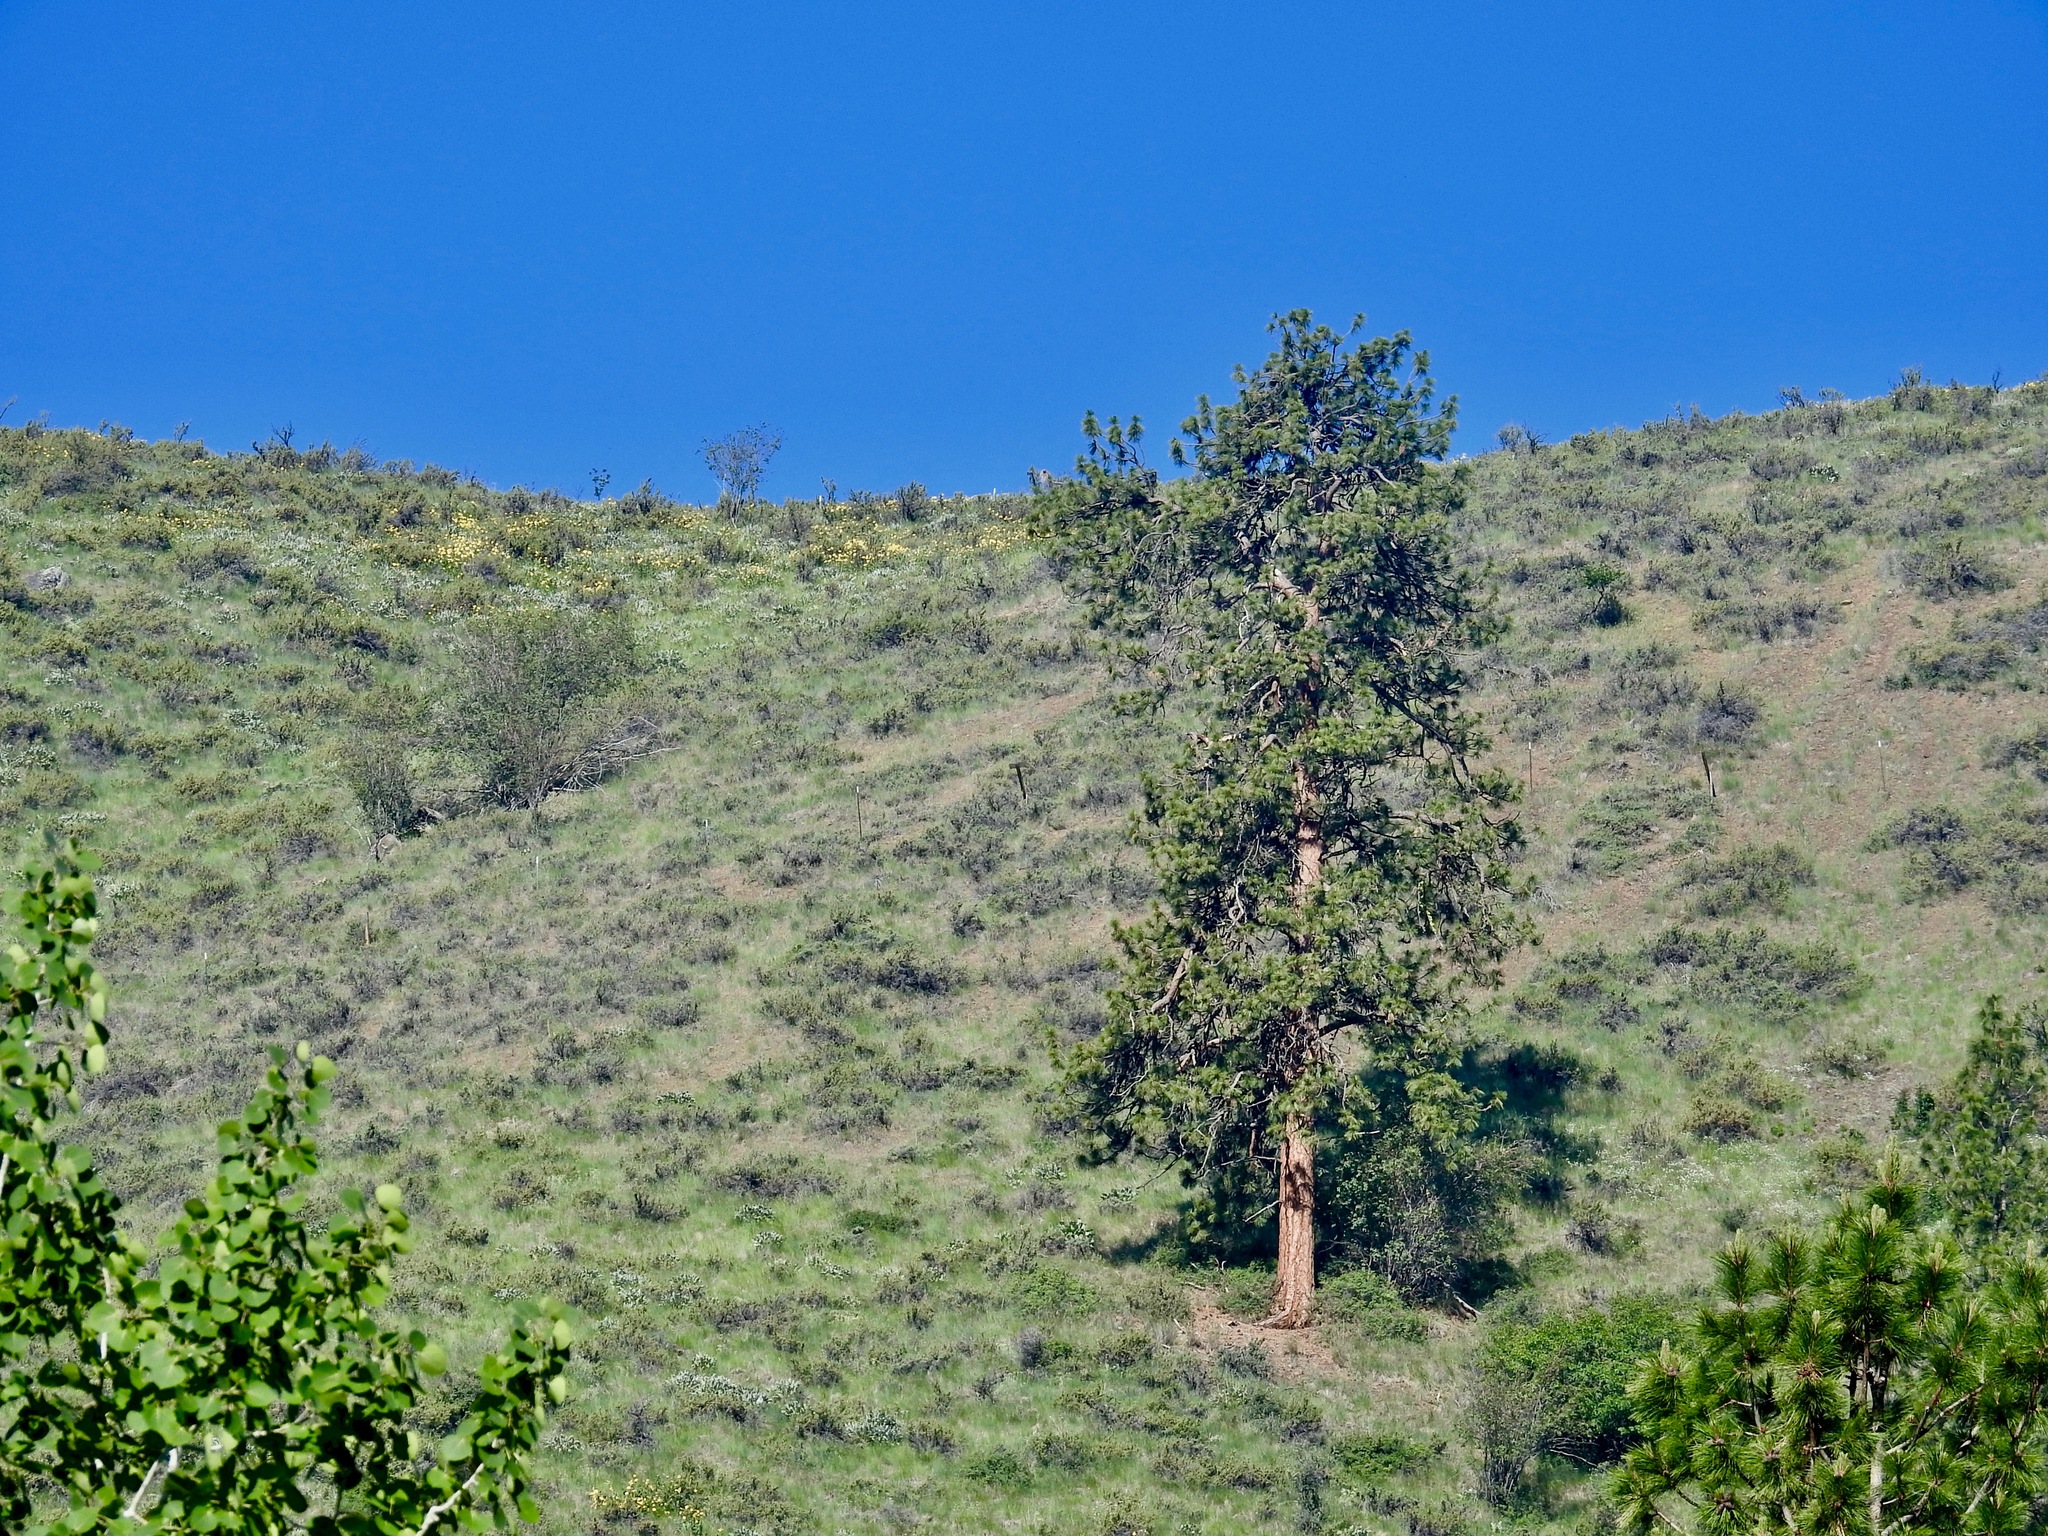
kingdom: Plantae
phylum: Tracheophyta
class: Pinopsida
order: Pinales
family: Pinaceae
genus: Pinus
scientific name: Pinus ponderosa
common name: Western yellow-pine
